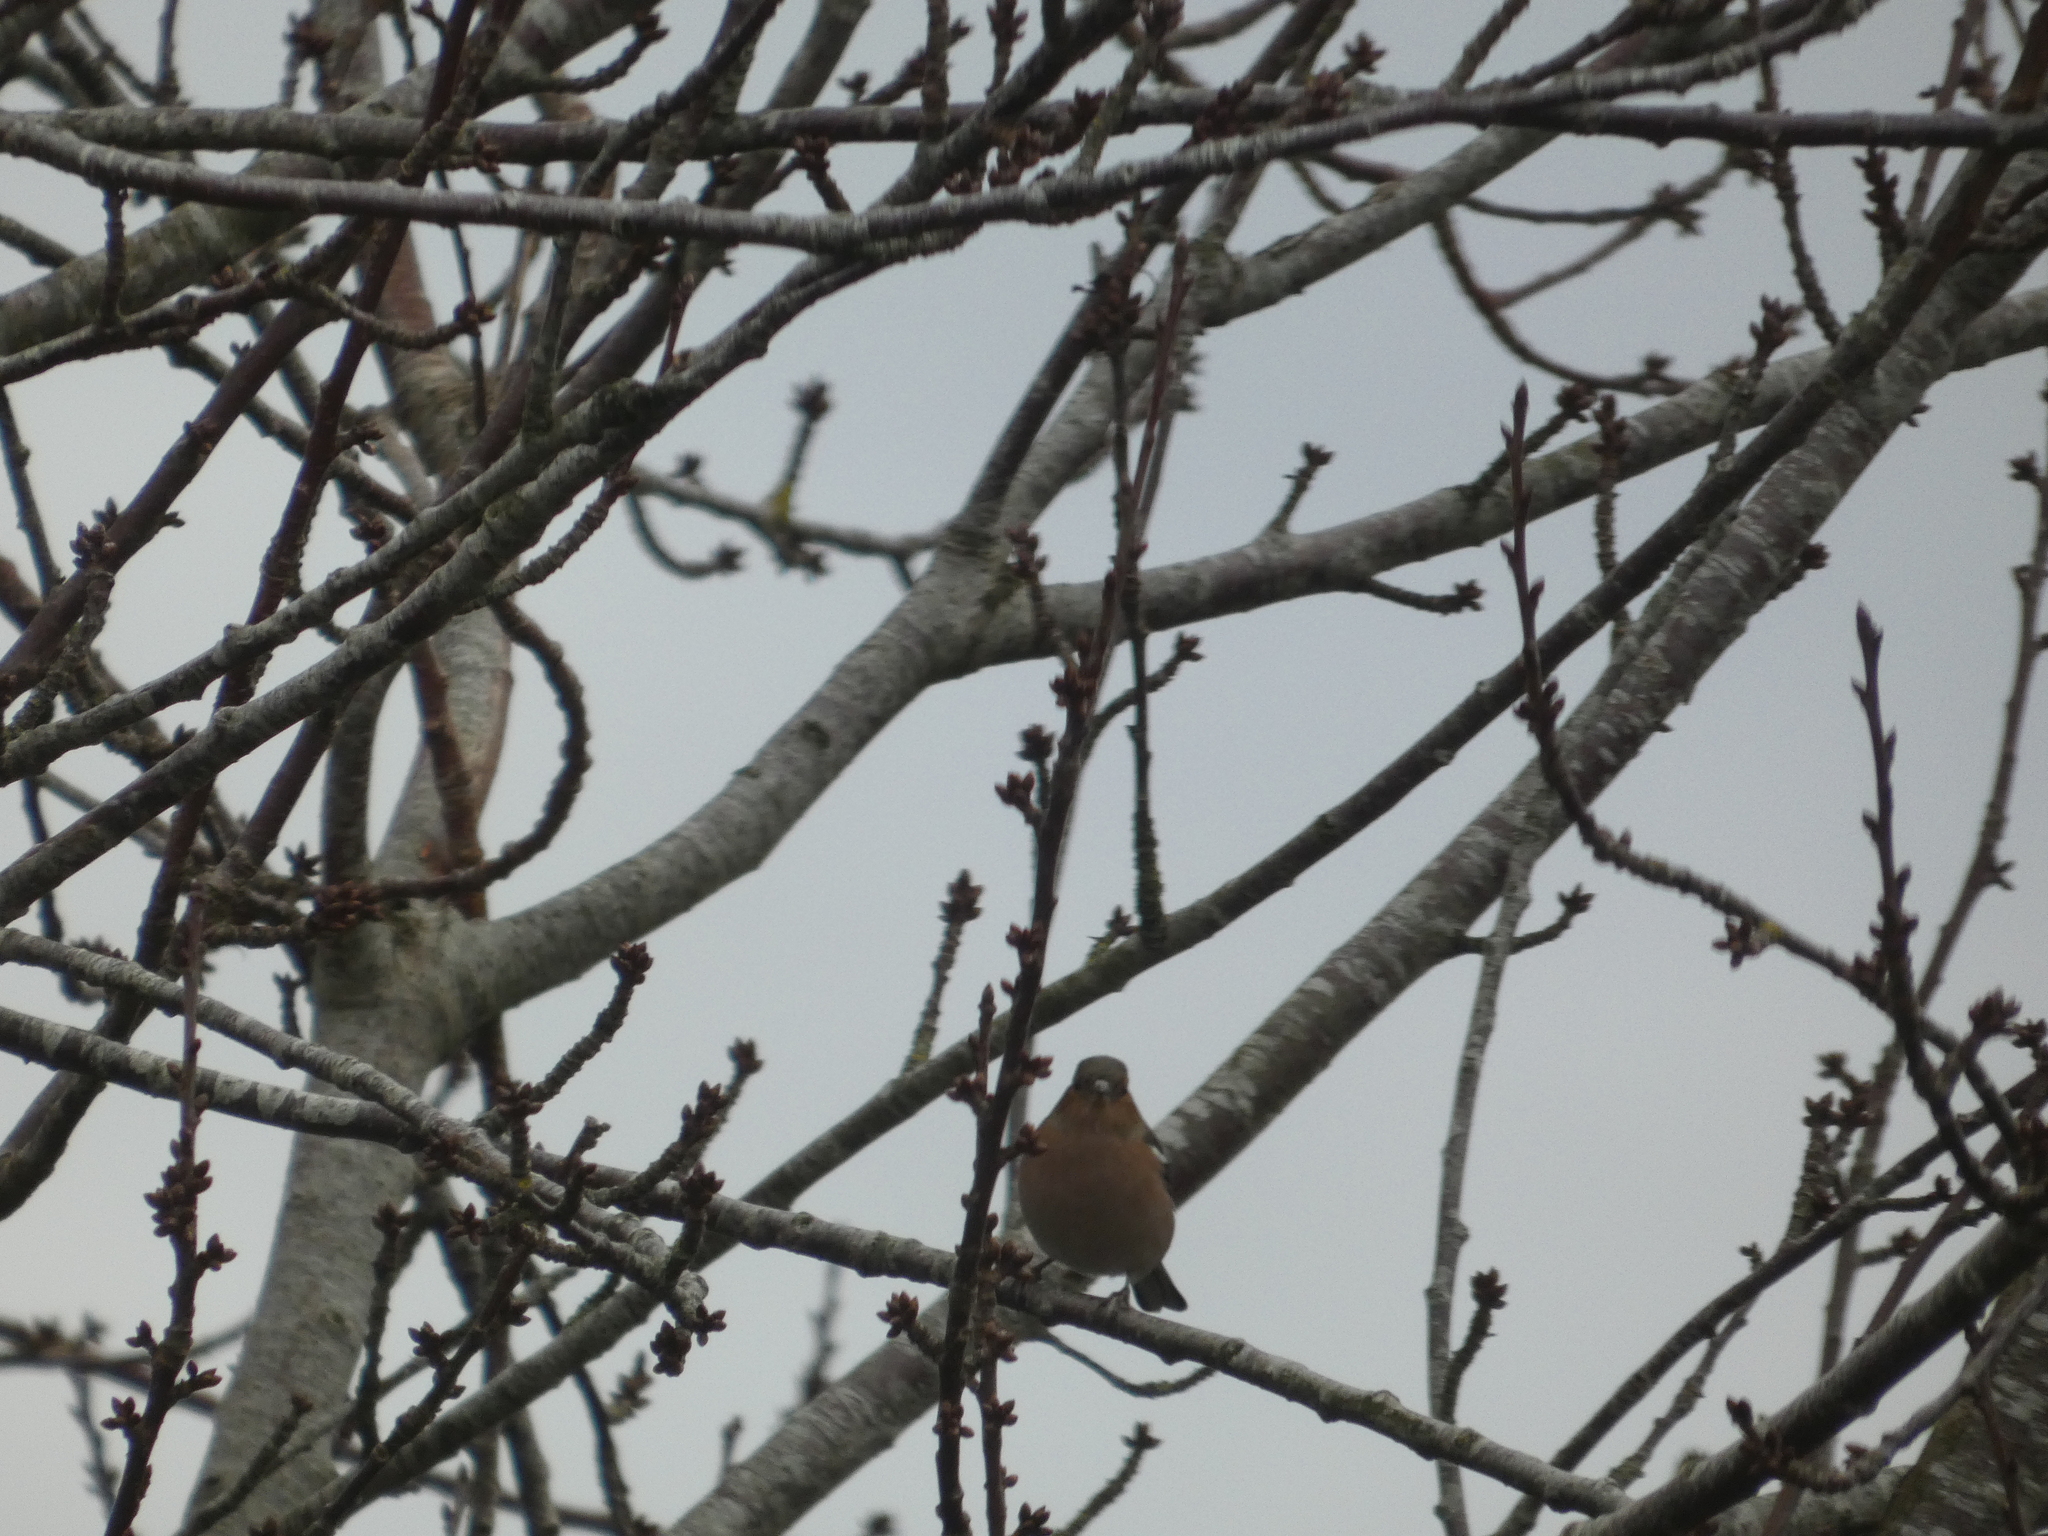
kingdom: Animalia
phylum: Chordata
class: Aves
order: Passeriformes
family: Fringillidae
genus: Fringilla
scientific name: Fringilla coelebs
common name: Common chaffinch
